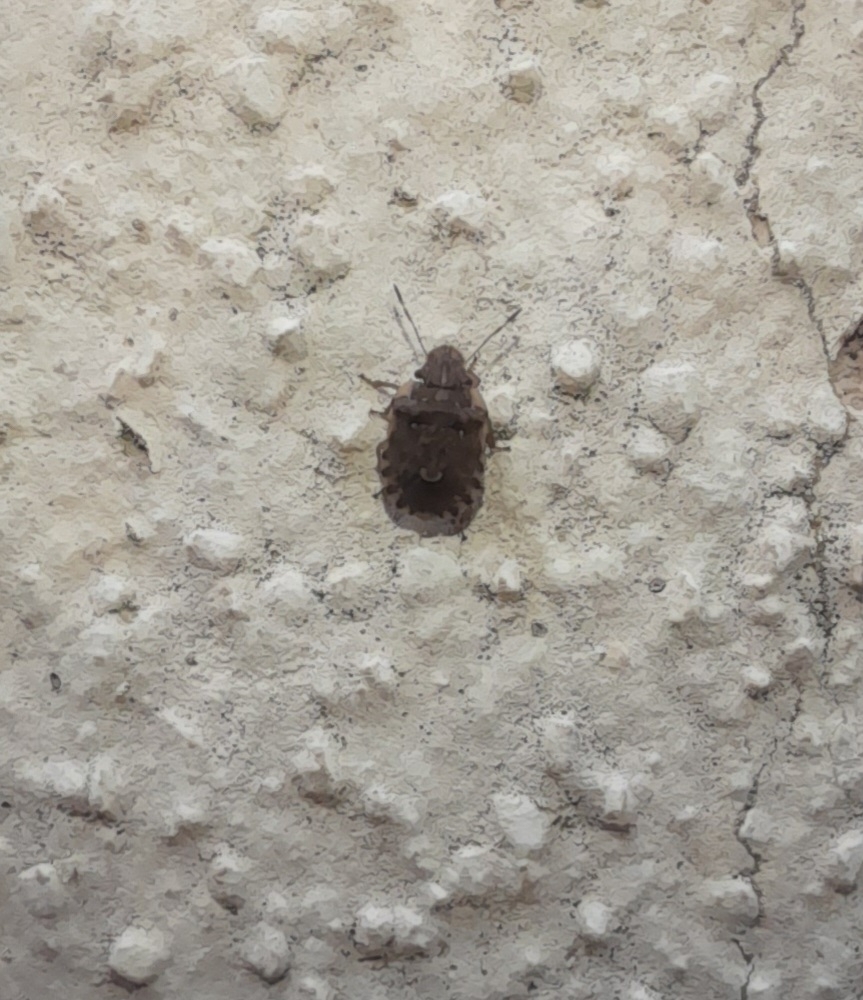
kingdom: Animalia
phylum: Arthropoda
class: Insecta
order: Hemiptera
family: Pentatomidae
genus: Sciocoris
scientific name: Sciocoris sideritidis
